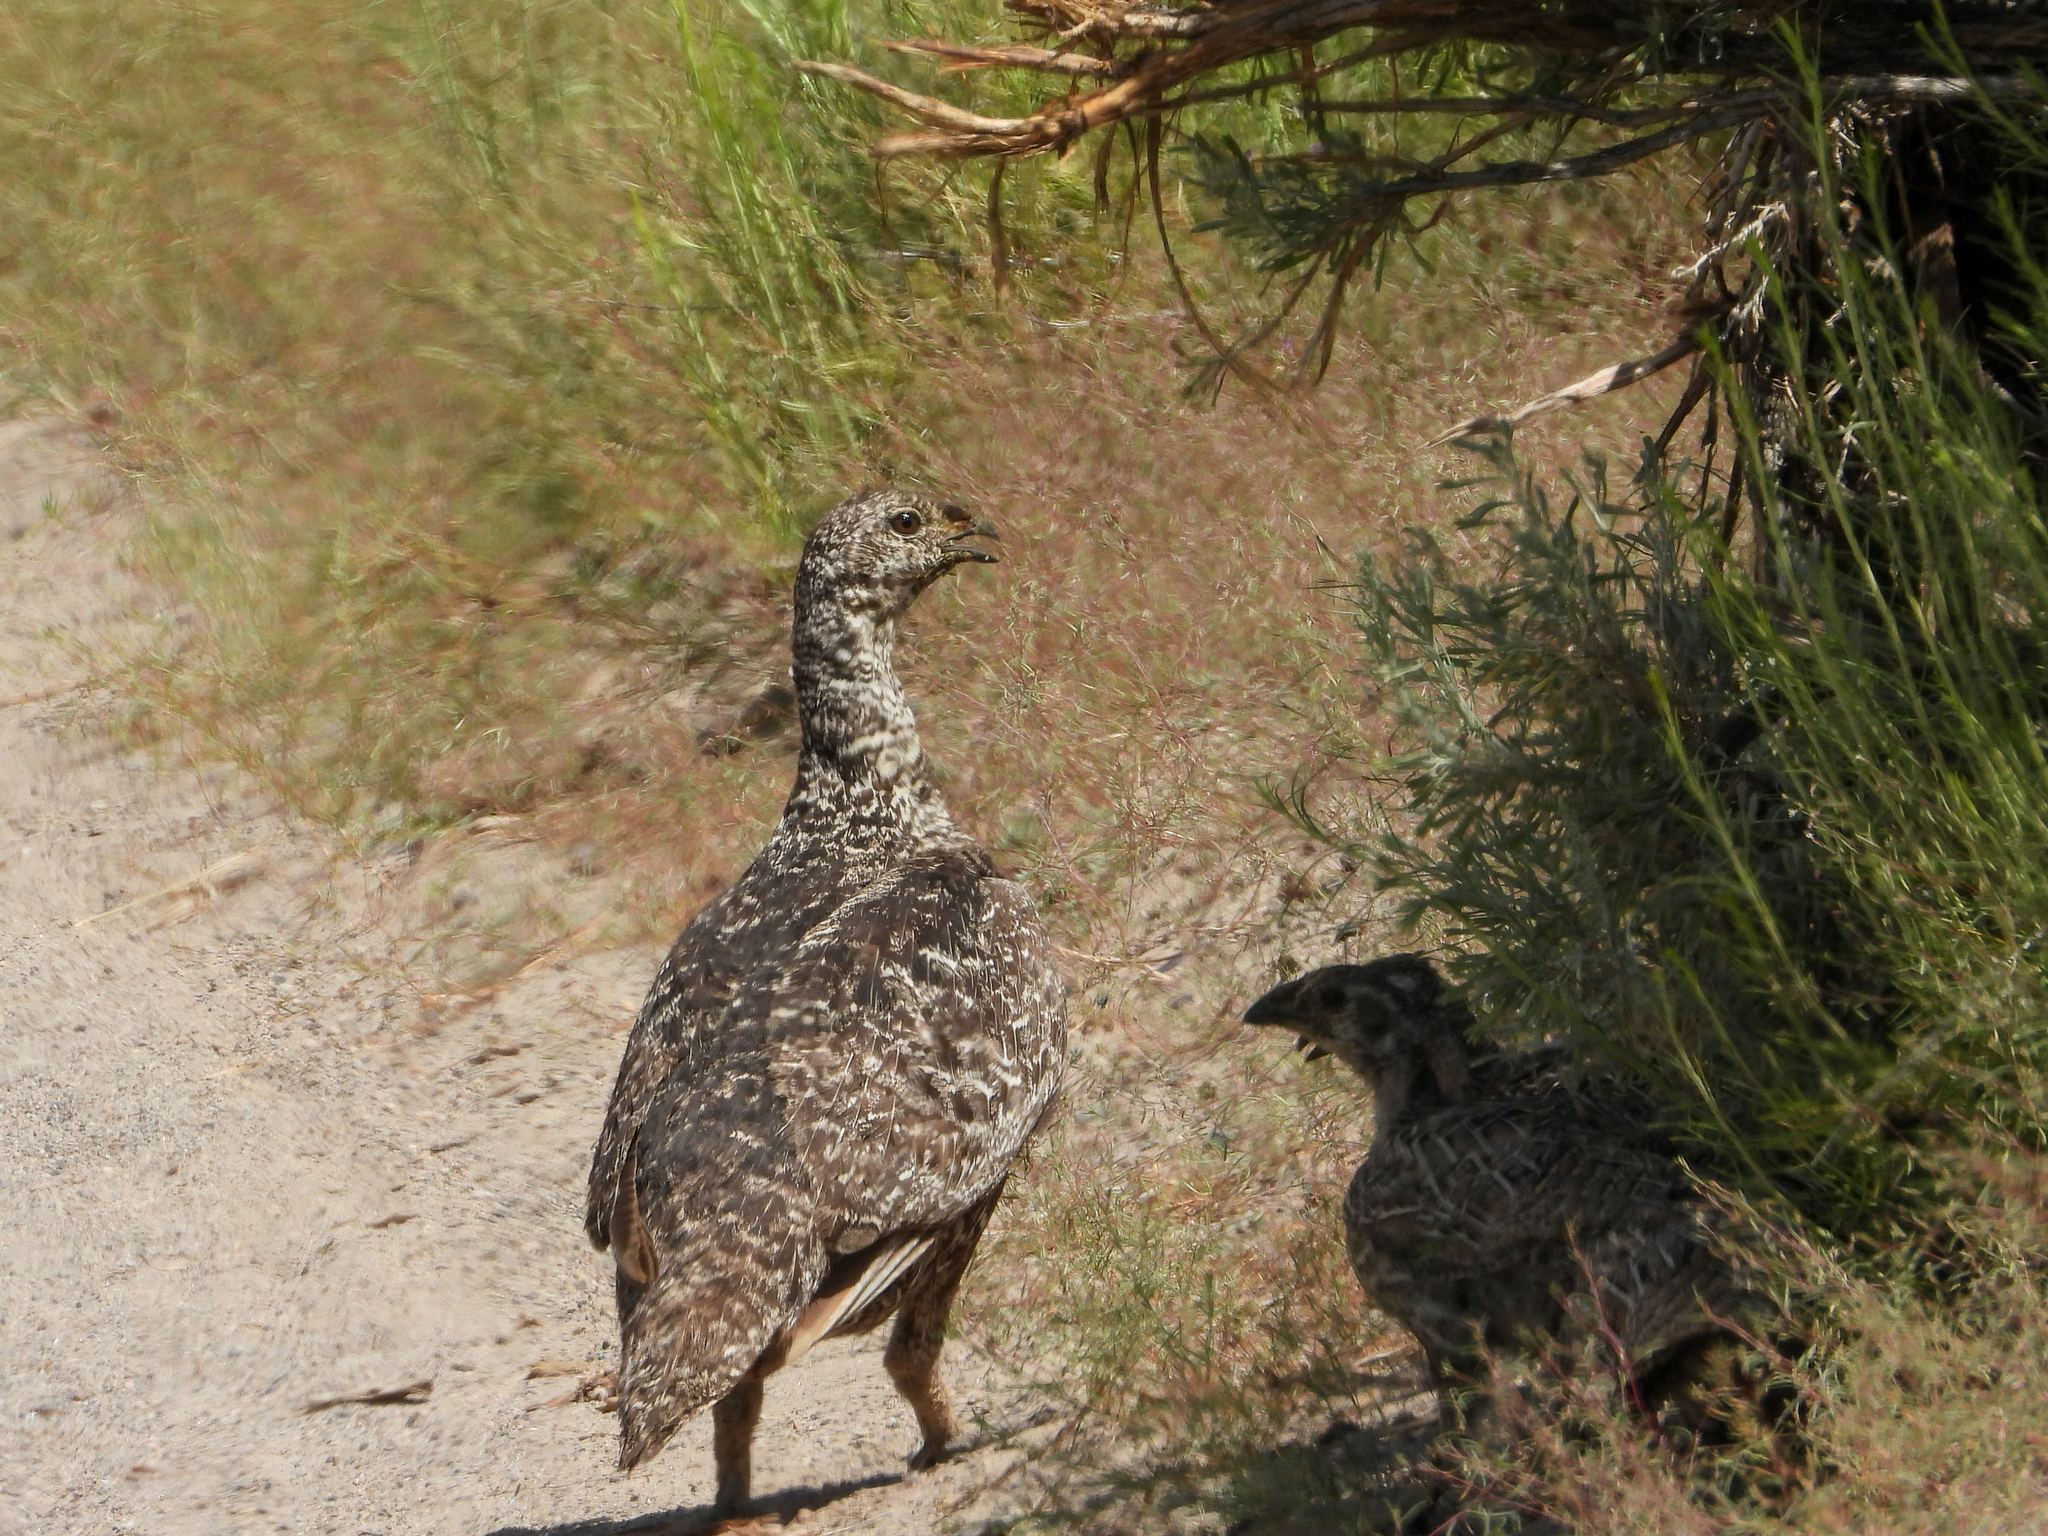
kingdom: Animalia
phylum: Chordata
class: Aves
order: Galliformes
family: Phasianidae
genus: Centrocercus
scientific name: Centrocercus urophasianus
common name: Sage grouse
